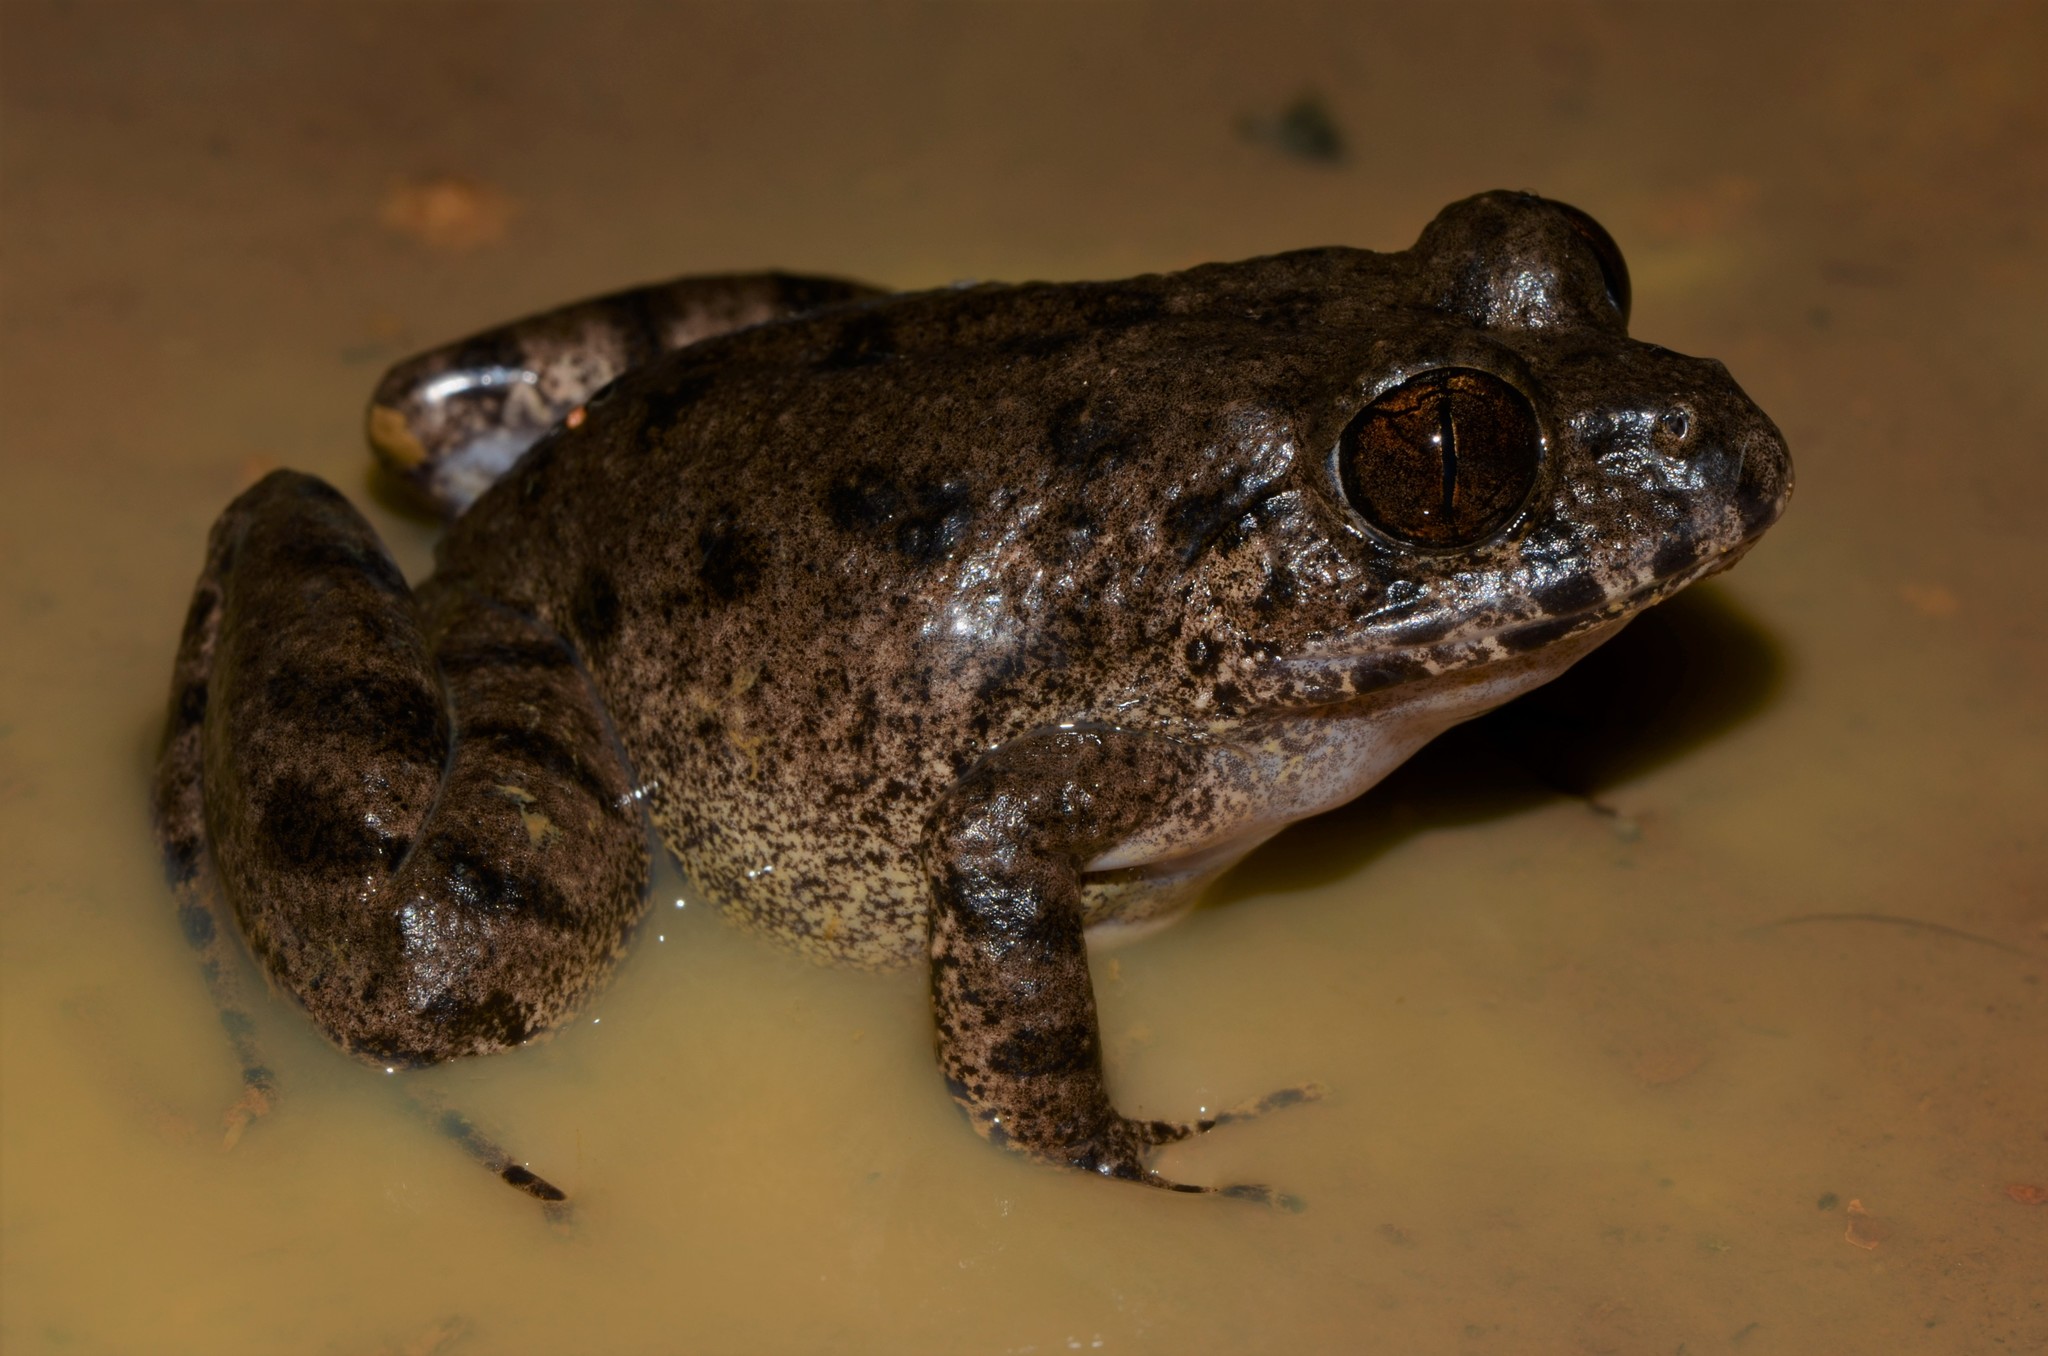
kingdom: Animalia
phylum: Chordata
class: Amphibia
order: Anura
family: Arthroleptidae
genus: Scotobleps
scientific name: Scotobleps gabonicus
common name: Gaboon forest frog
